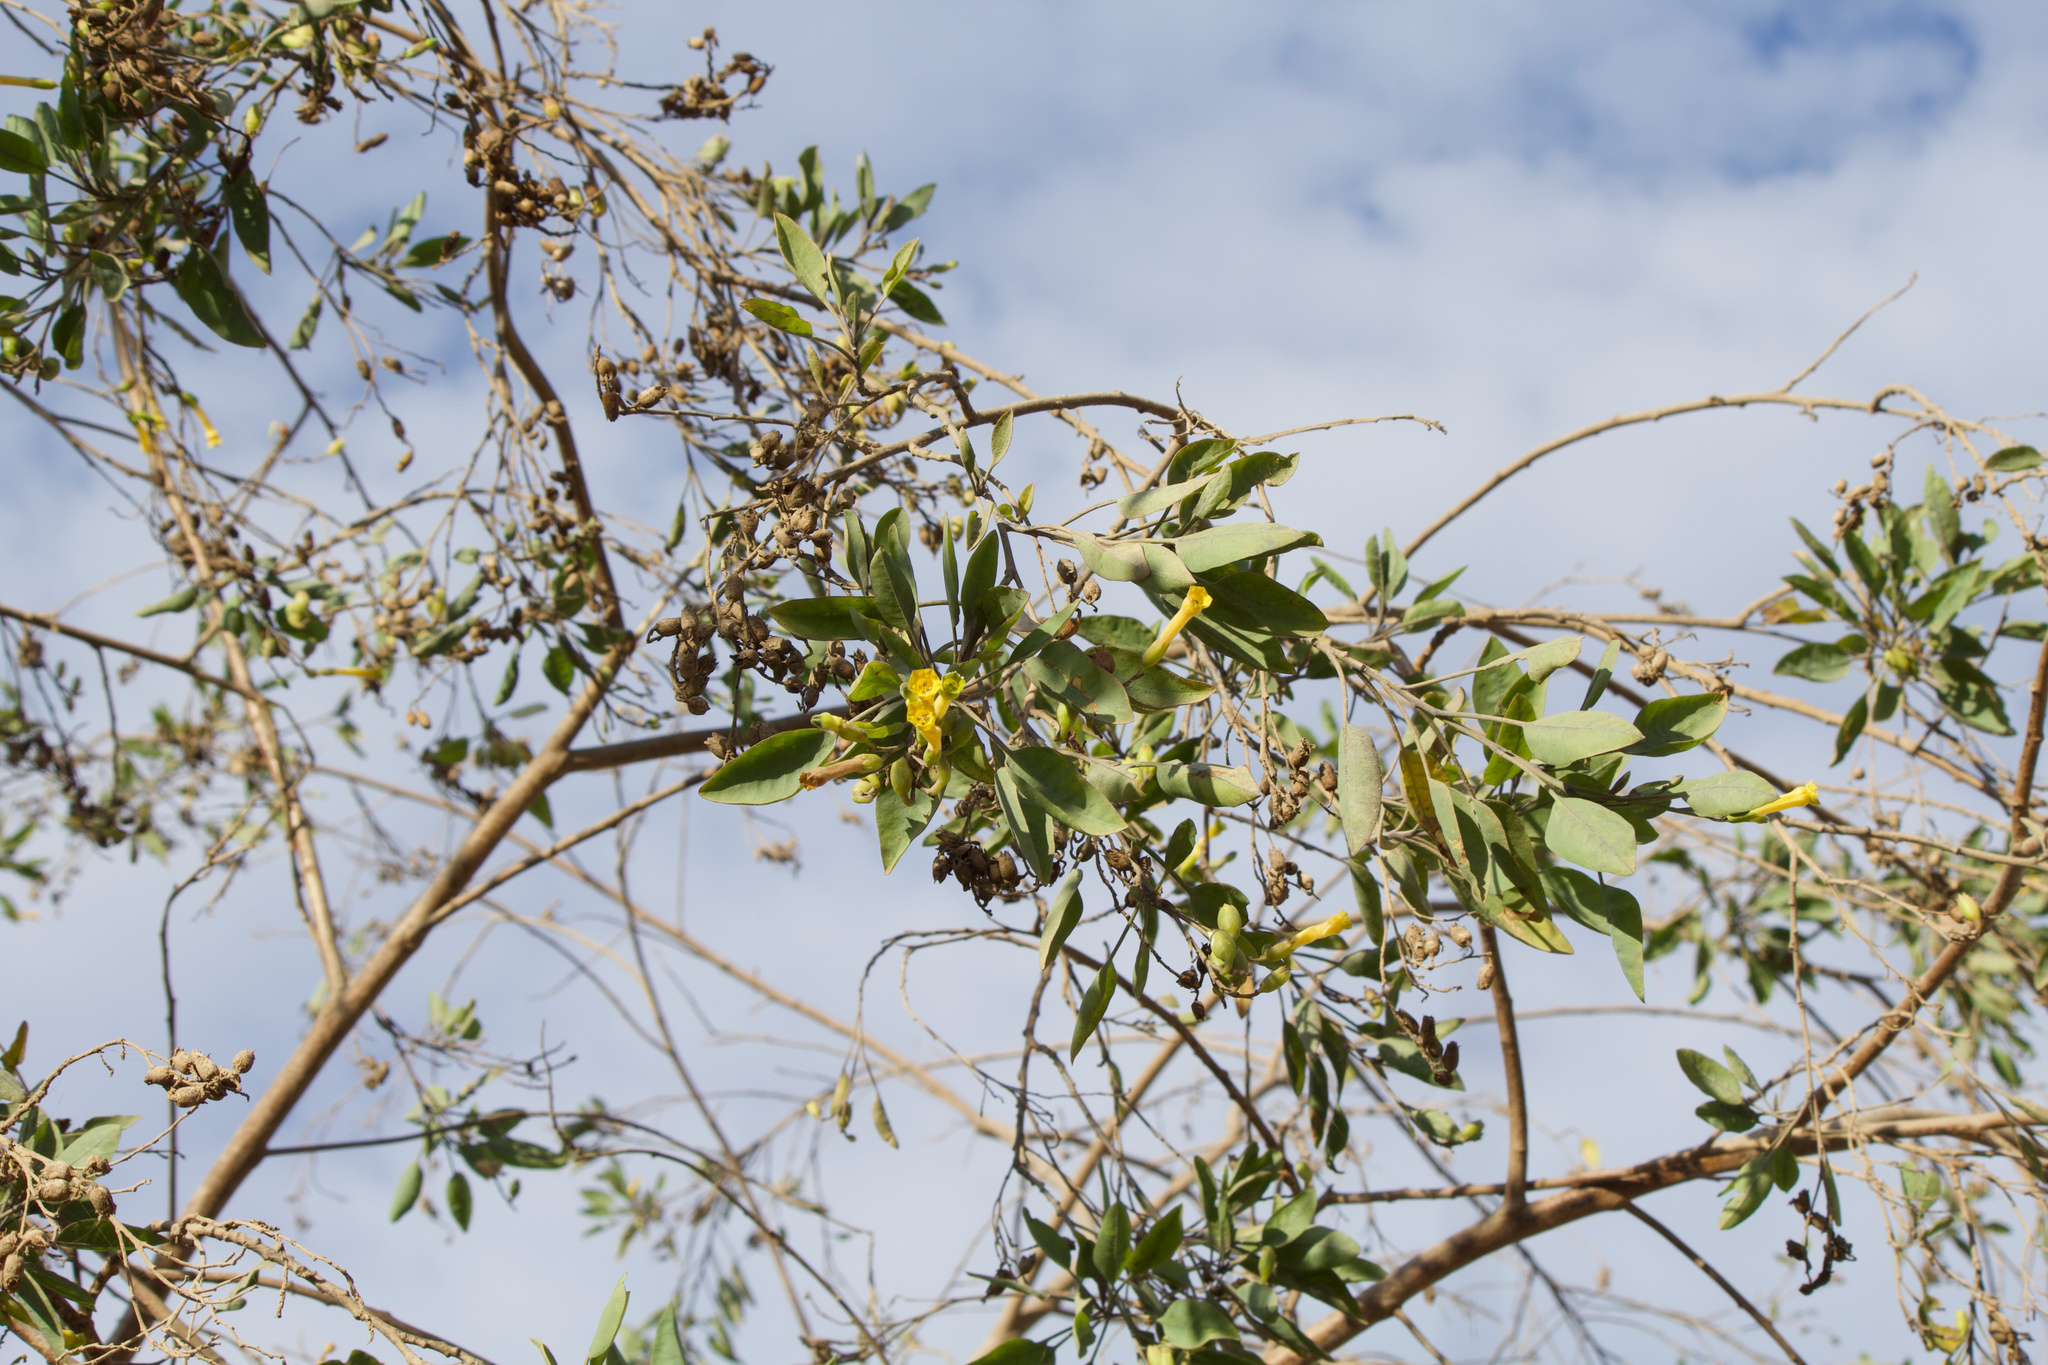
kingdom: Plantae
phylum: Tracheophyta
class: Magnoliopsida
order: Solanales
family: Solanaceae
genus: Nicotiana
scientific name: Nicotiana glauca
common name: Tree tobacco
